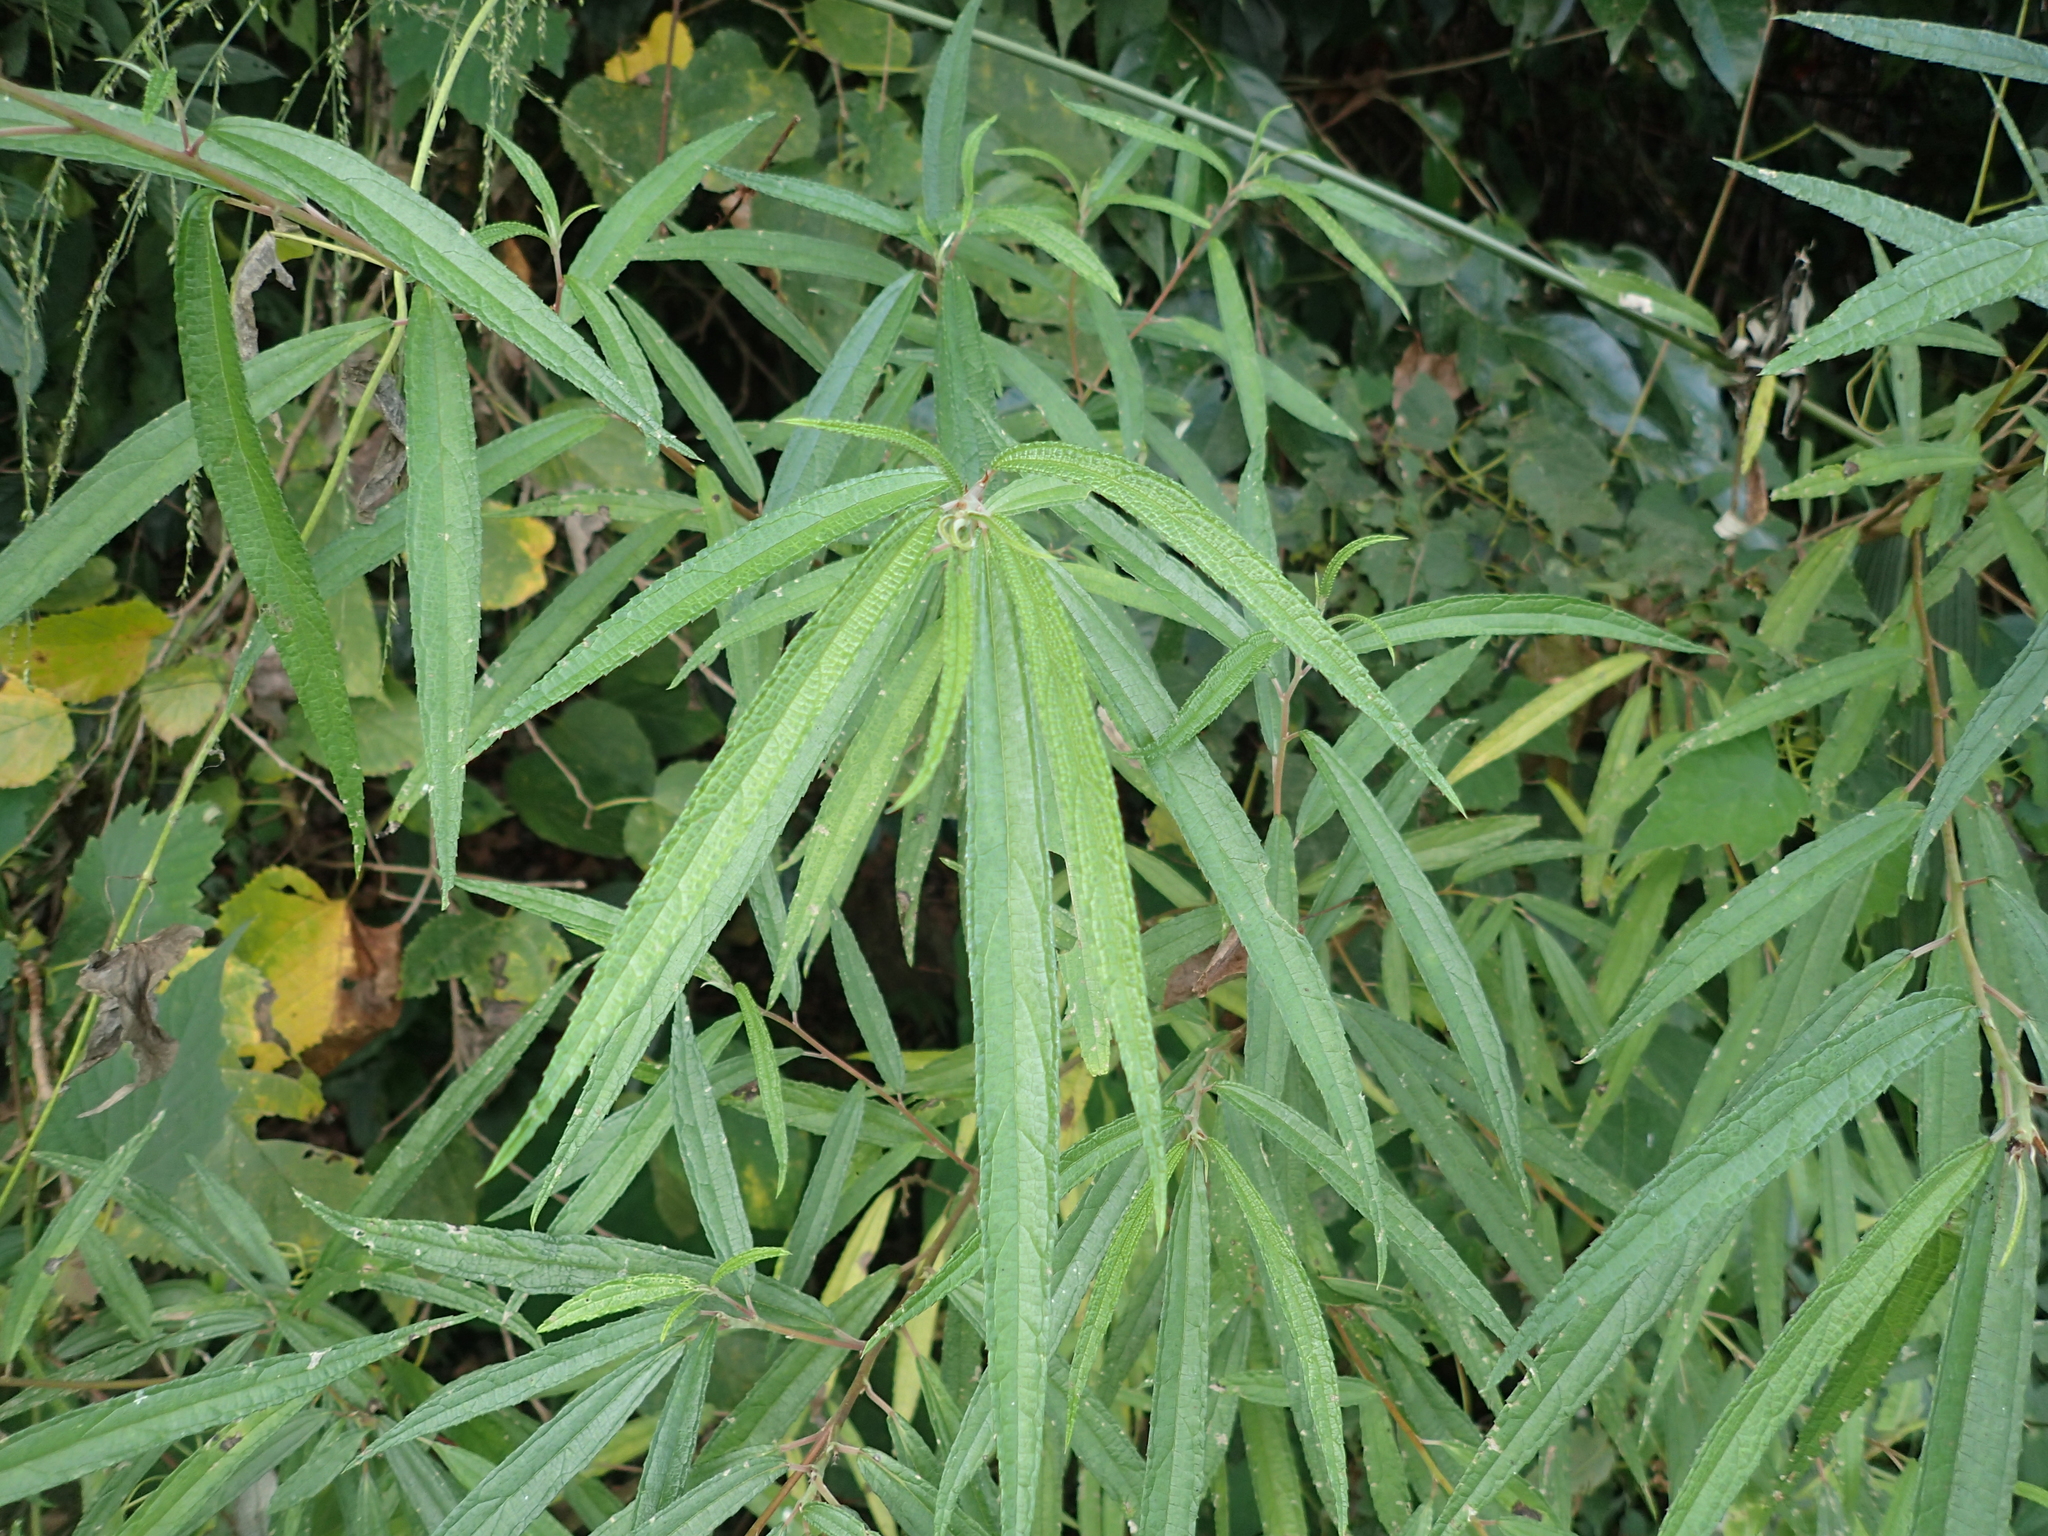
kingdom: Plantae
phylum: Tracheophyta
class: Magnoliopsida
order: Rosales
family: Urticaceae
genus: Debregeasia
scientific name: Debregeasia orientalis
